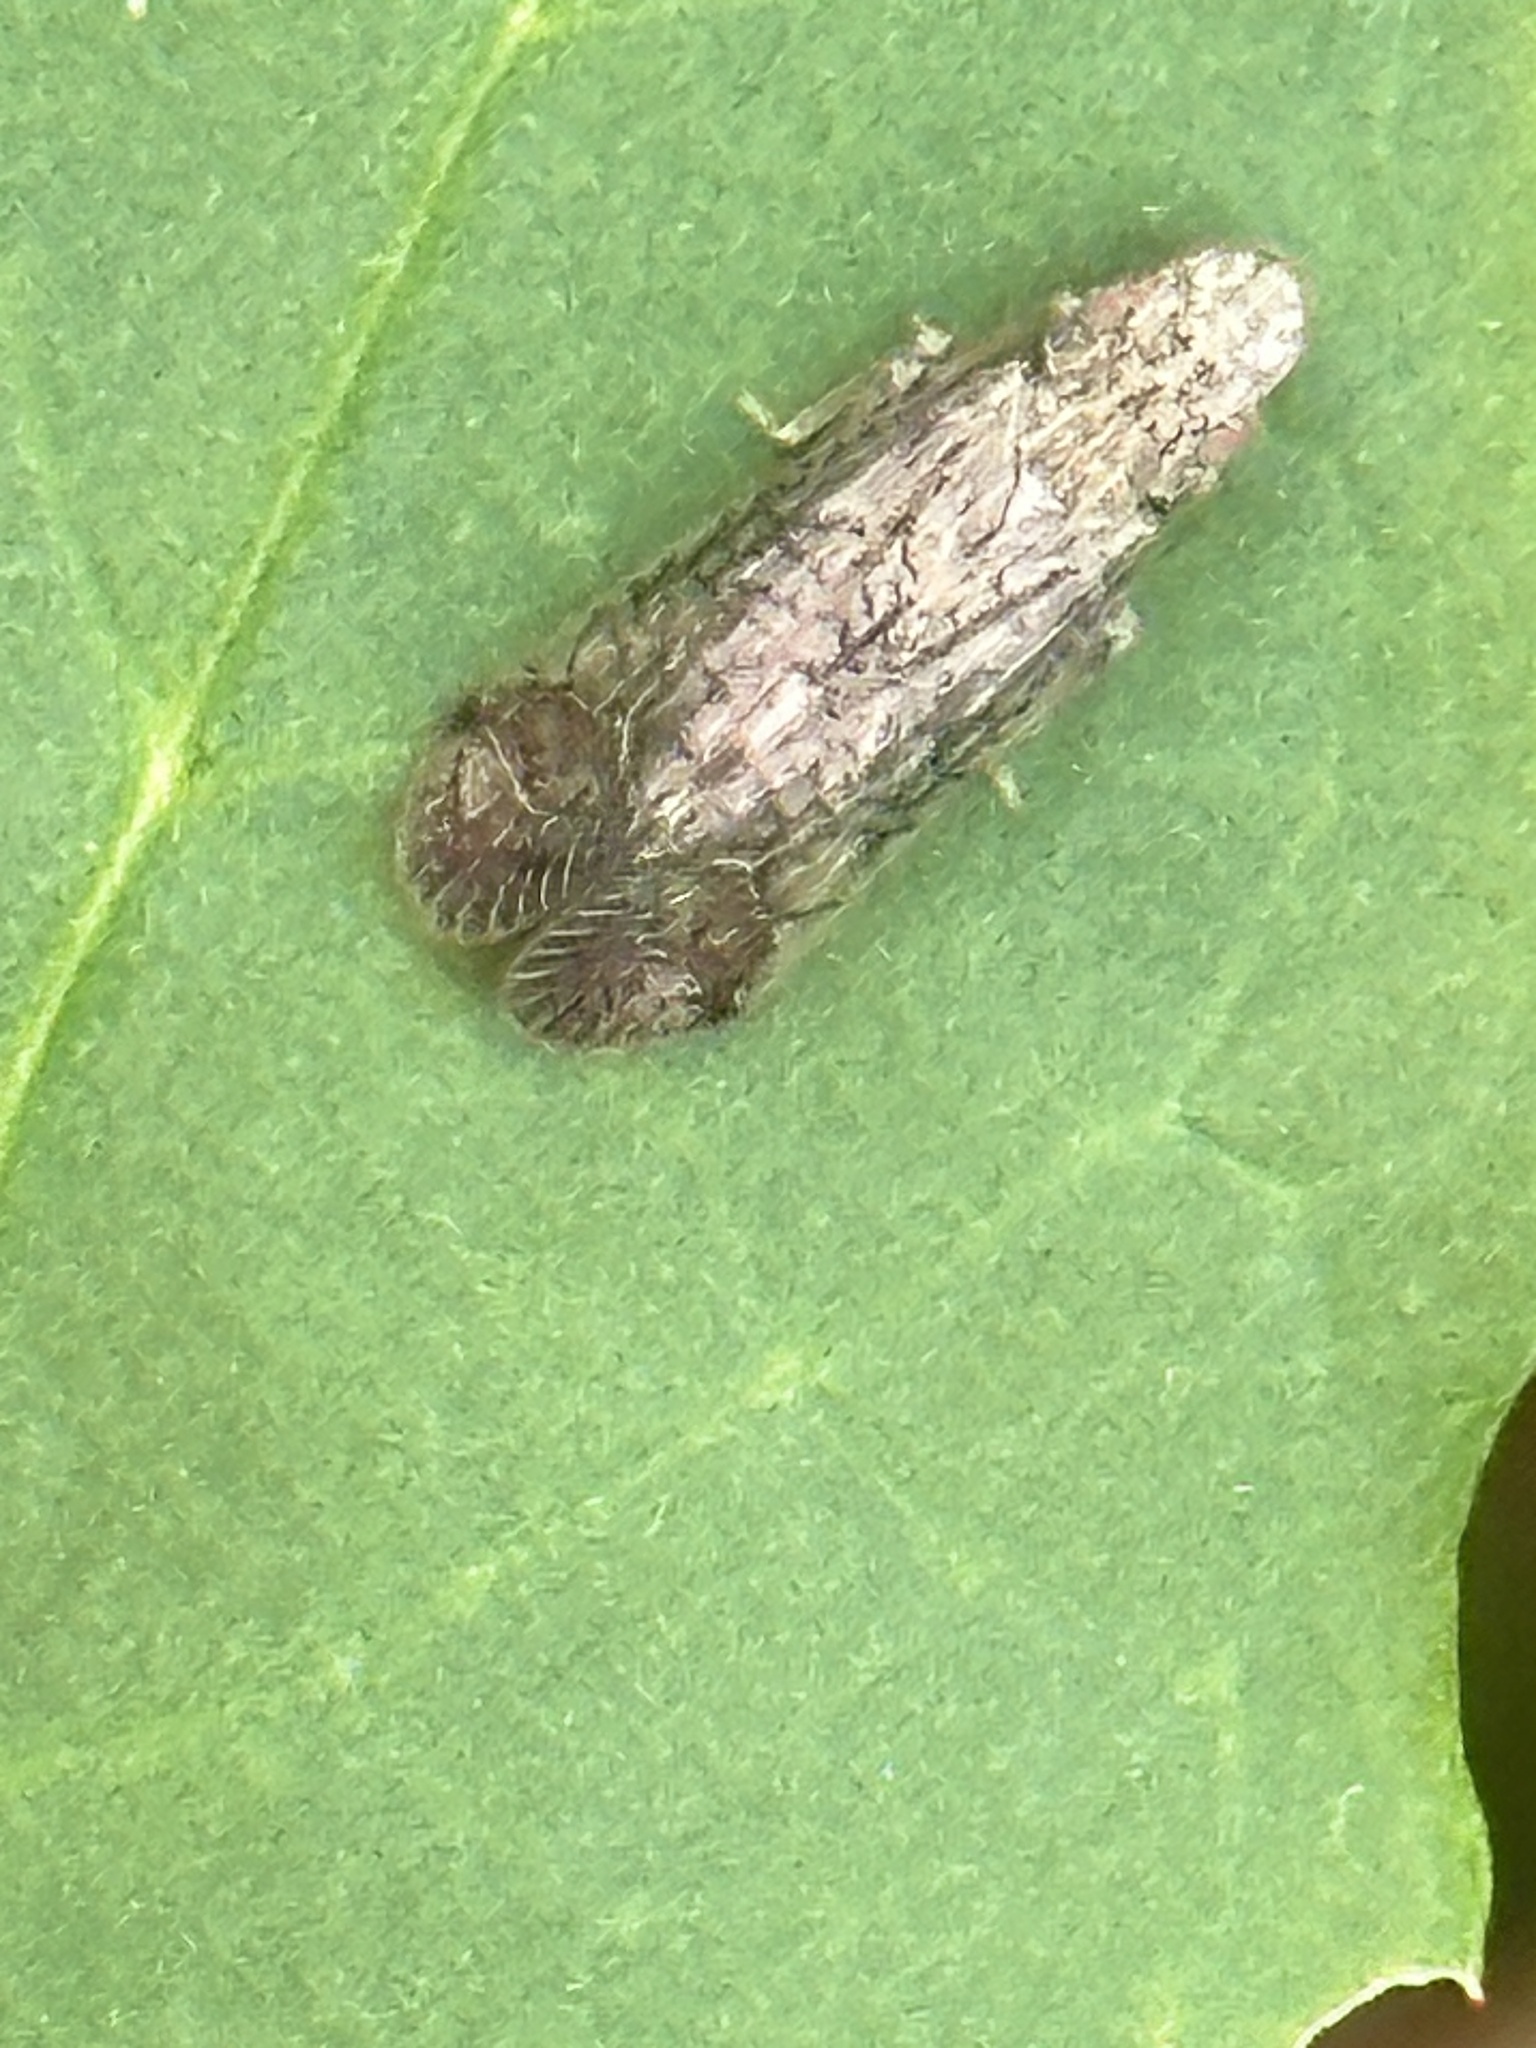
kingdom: Animalia
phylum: Arthropoda
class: Insecta
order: Hemiptera
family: Tropiduchidae
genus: Pelitropis
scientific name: Pelitropis rotulata
